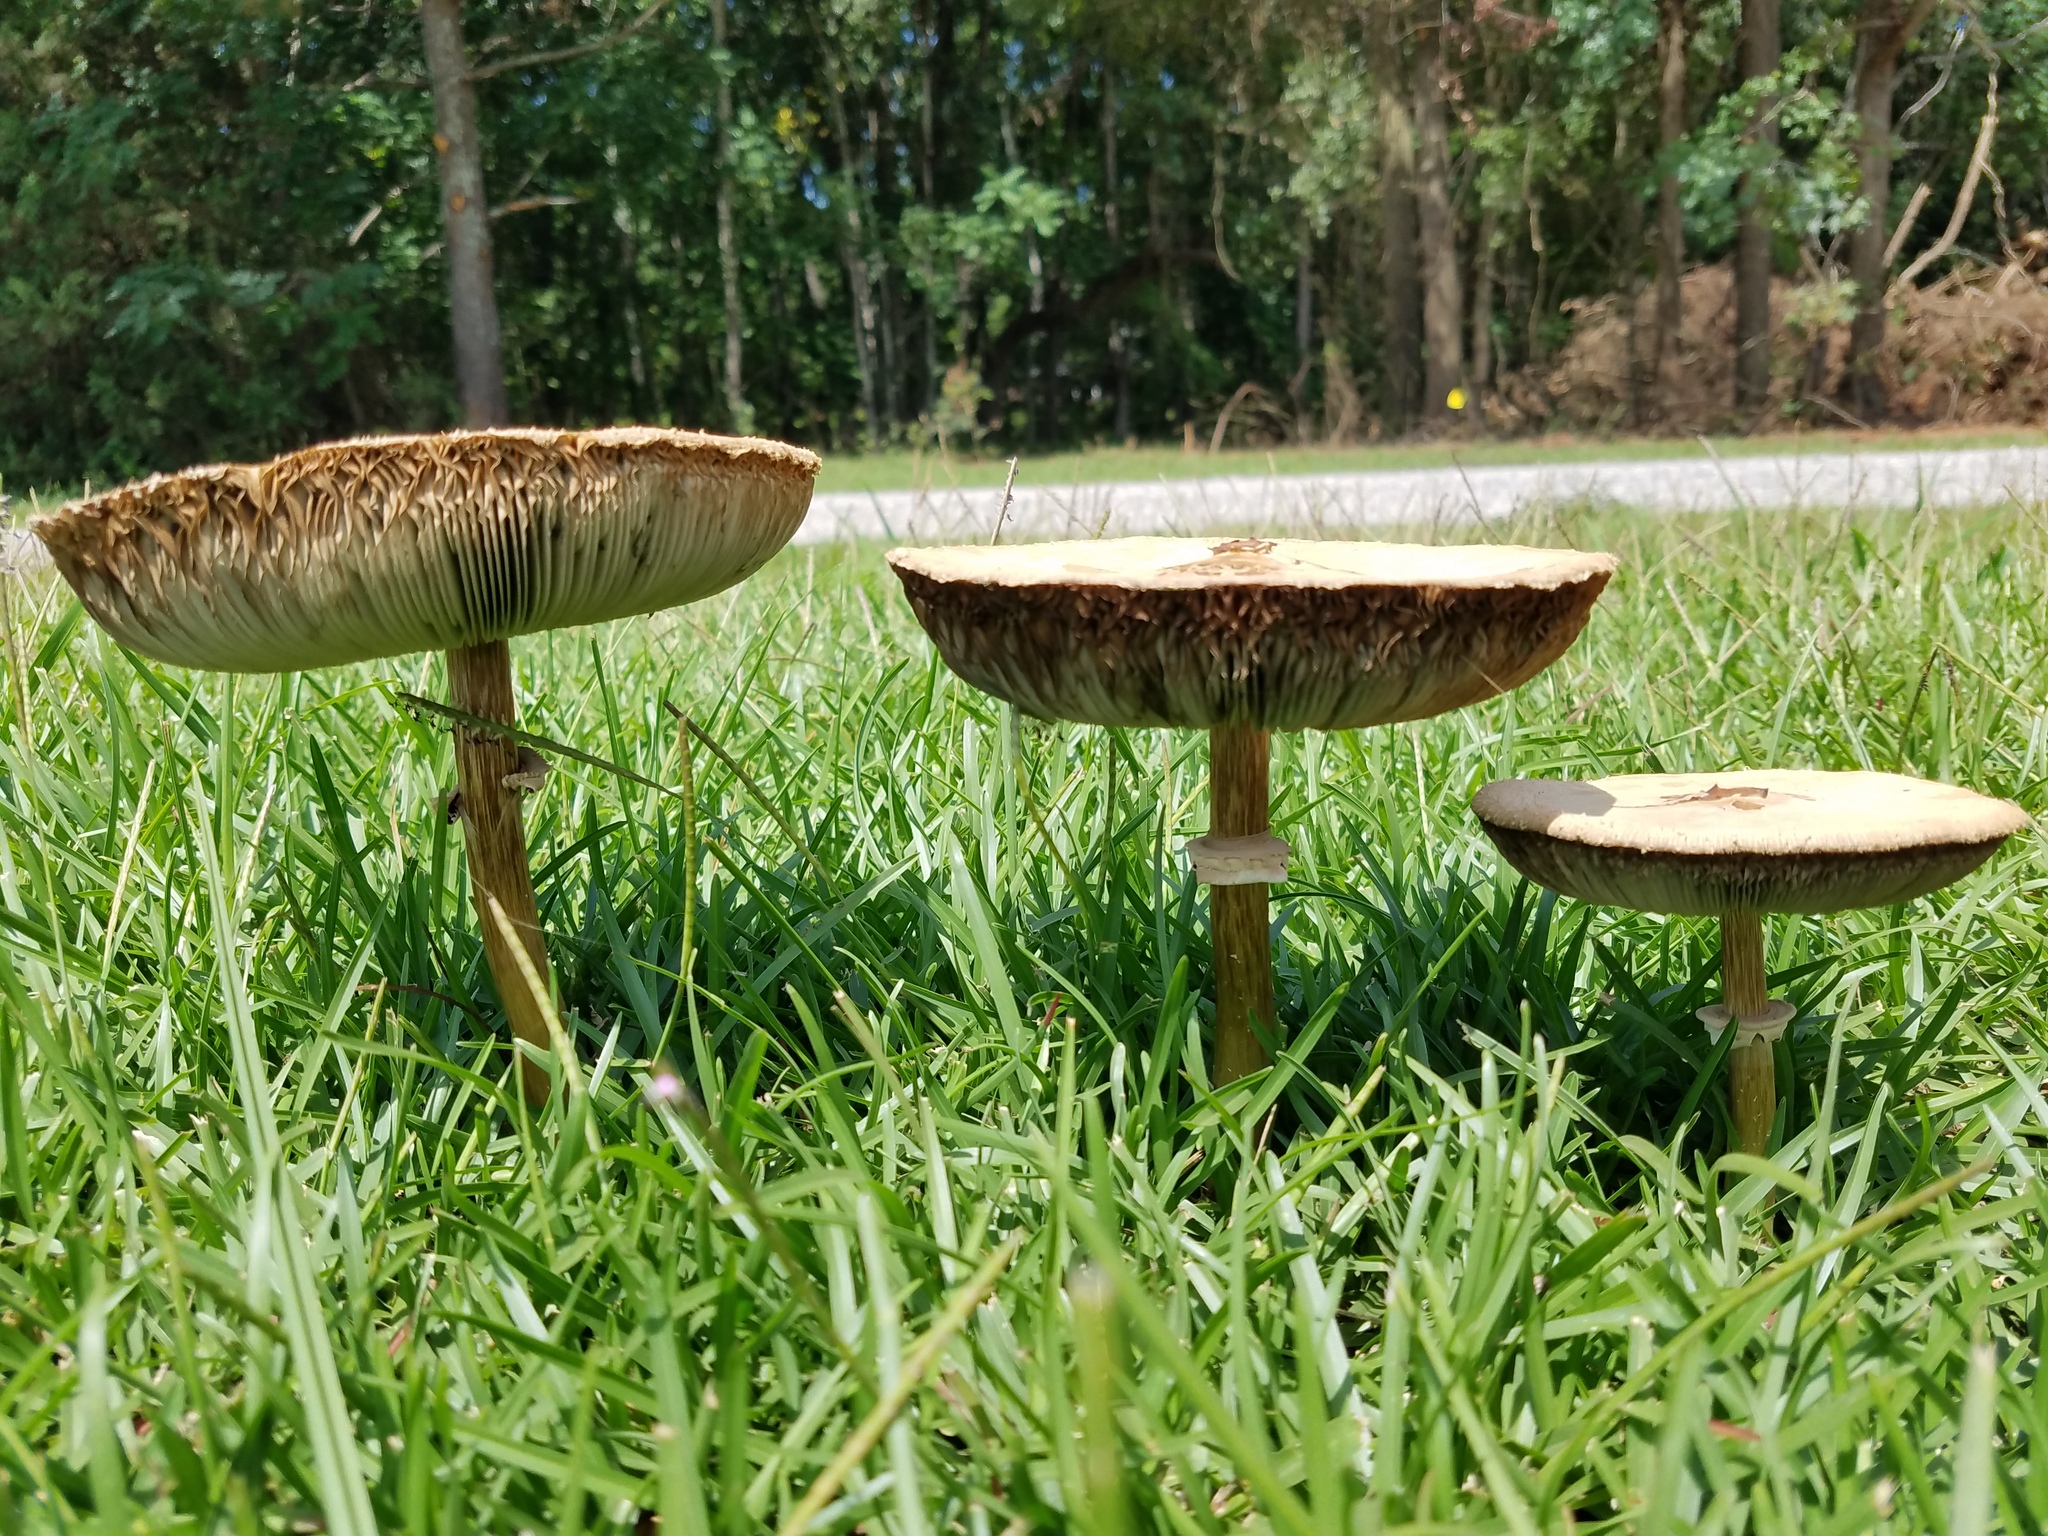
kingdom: Fungi
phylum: Basidiomycota
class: Agaricomycetes
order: Agaricales
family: Agaricaceae
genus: Chlorophyllum
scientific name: Chlorophyllum molybdites
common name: False parasol
